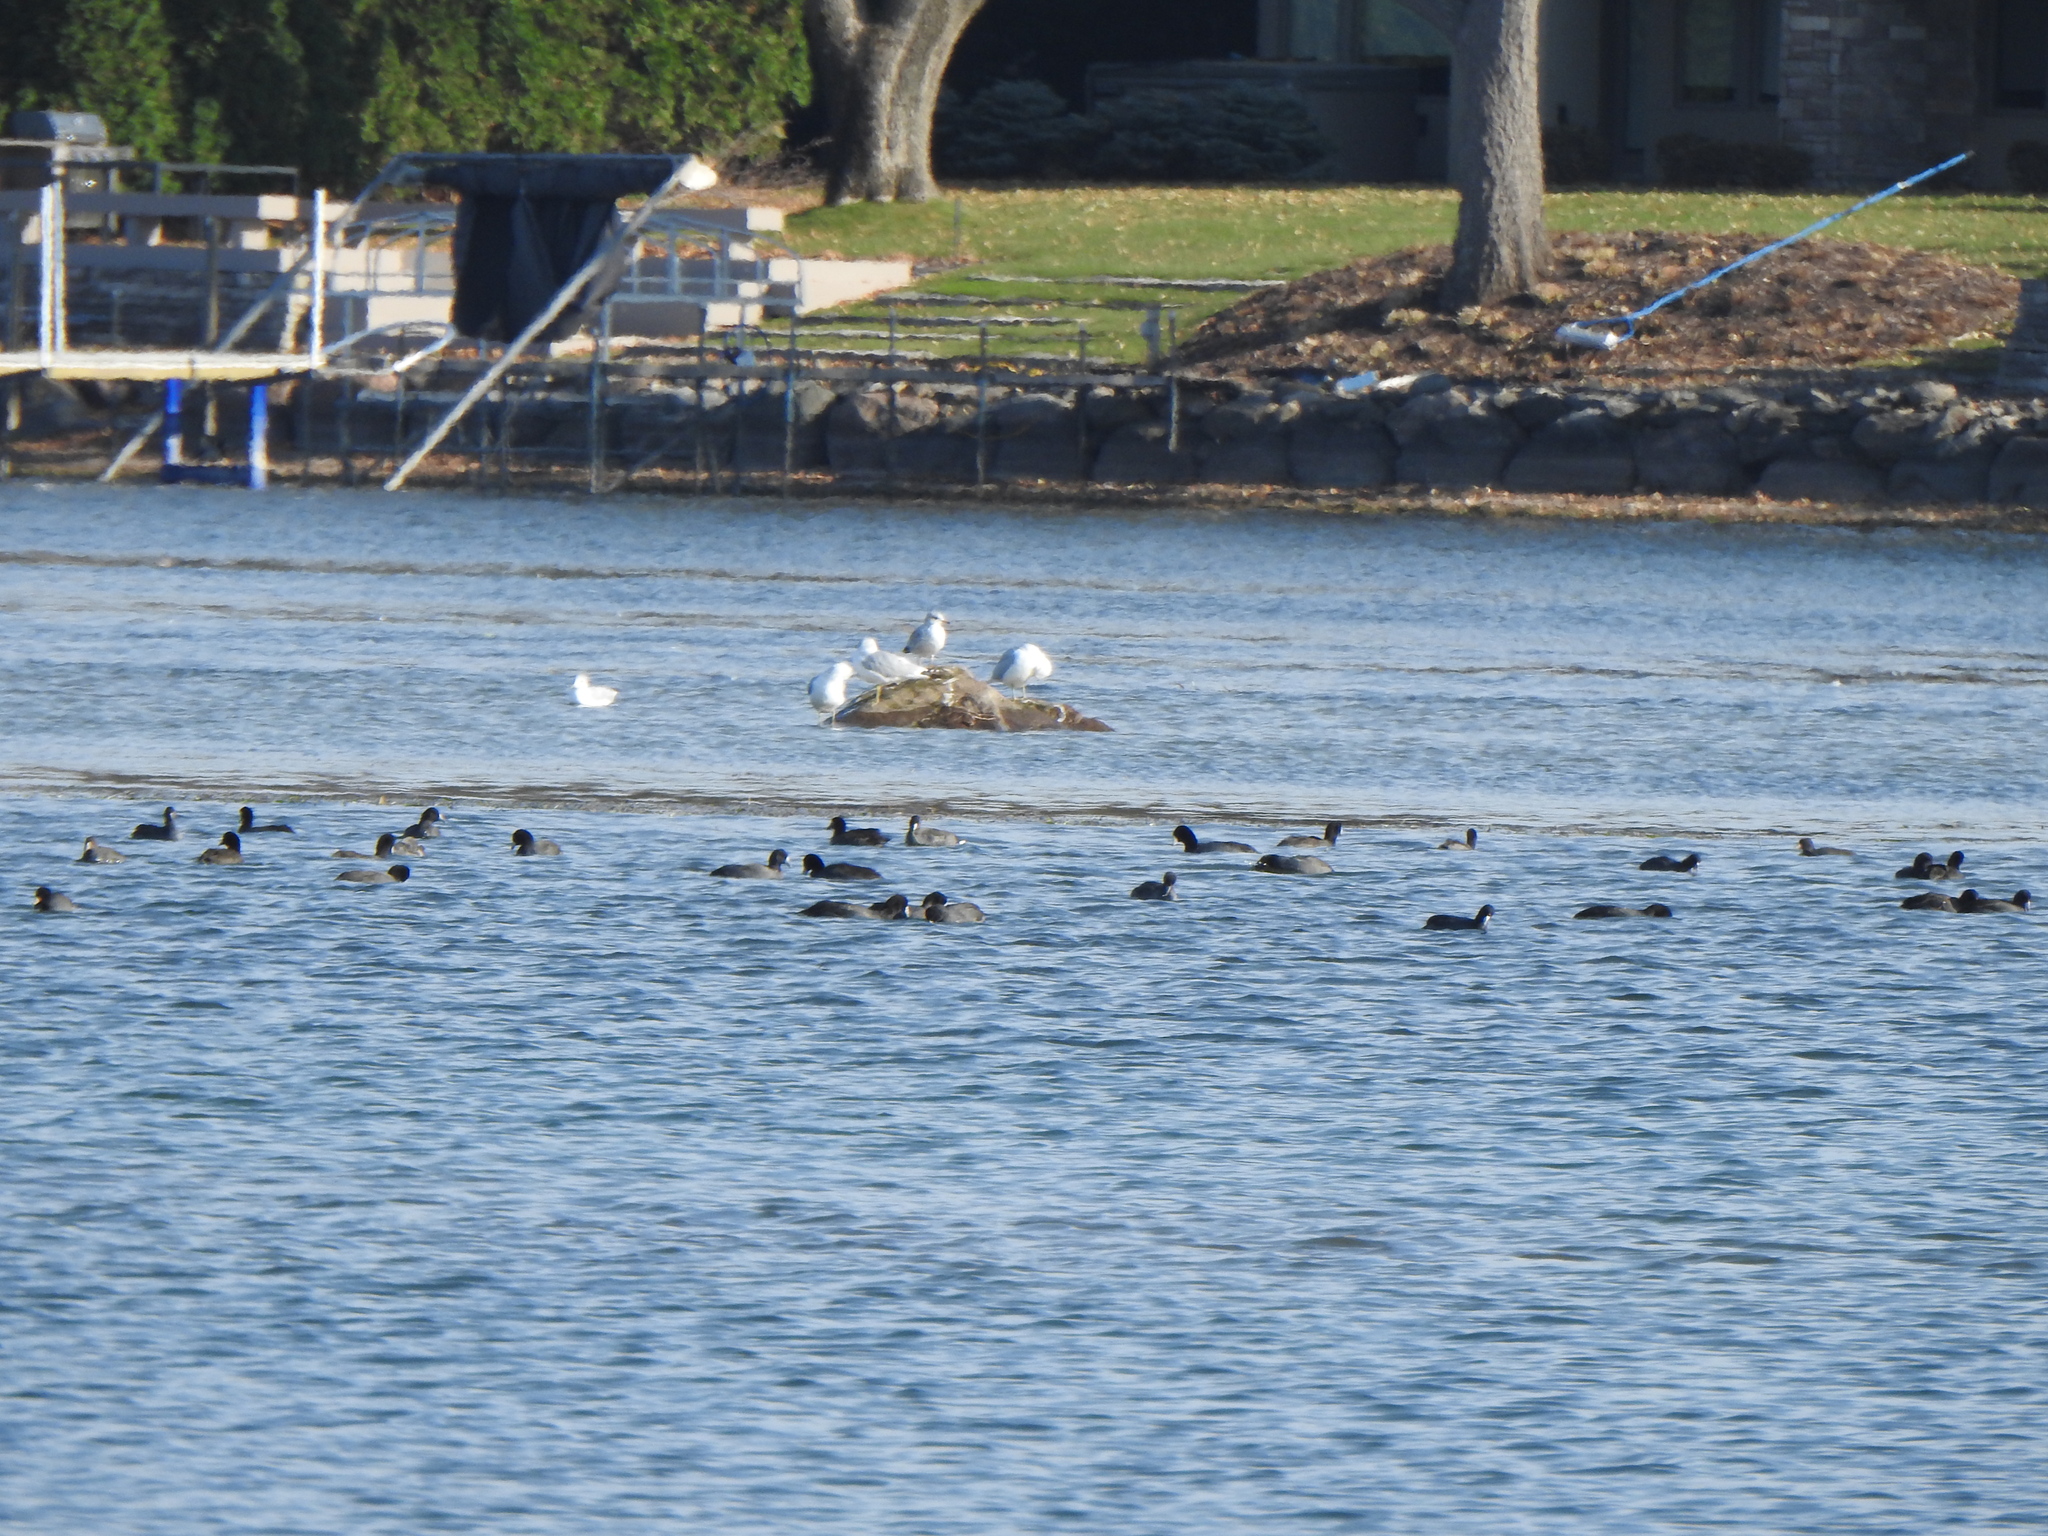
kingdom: Animalia
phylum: Chordata
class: Aves
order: Charadriiformes
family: Laridae
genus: Larus
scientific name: Larus delawarensis
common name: Ring-billed gull
